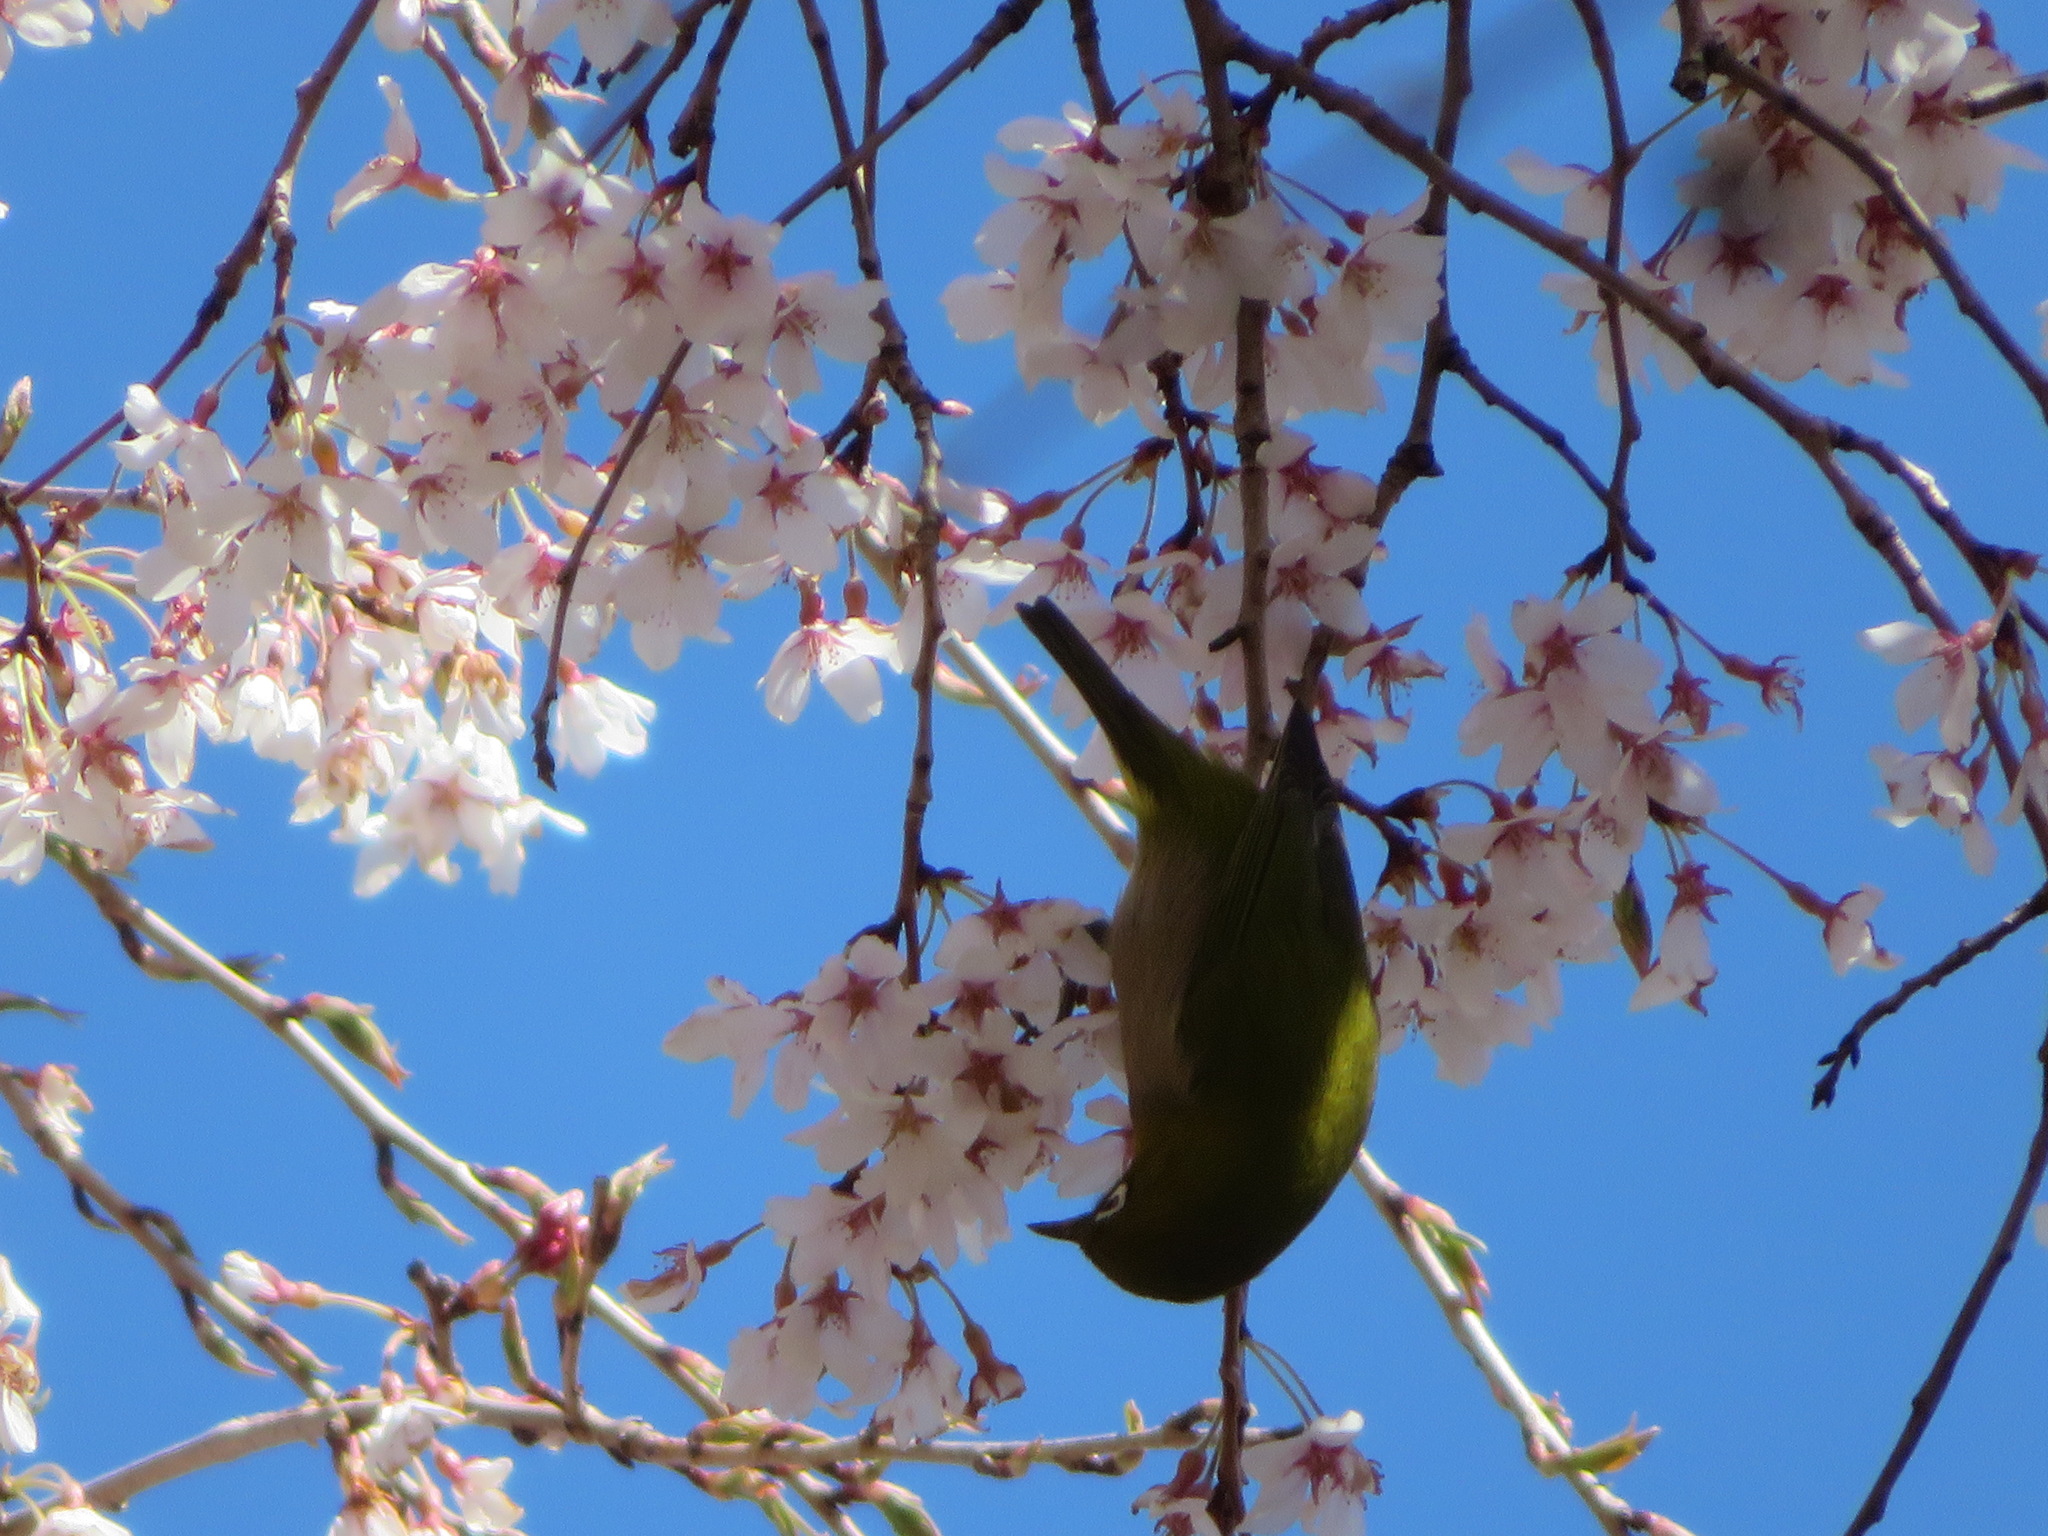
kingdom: Animalia
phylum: Chordata
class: Aves
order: Passeriformes
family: Zosteropidae
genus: Zosterops
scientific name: Zosterops japonicus
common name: Japanese white-eye
